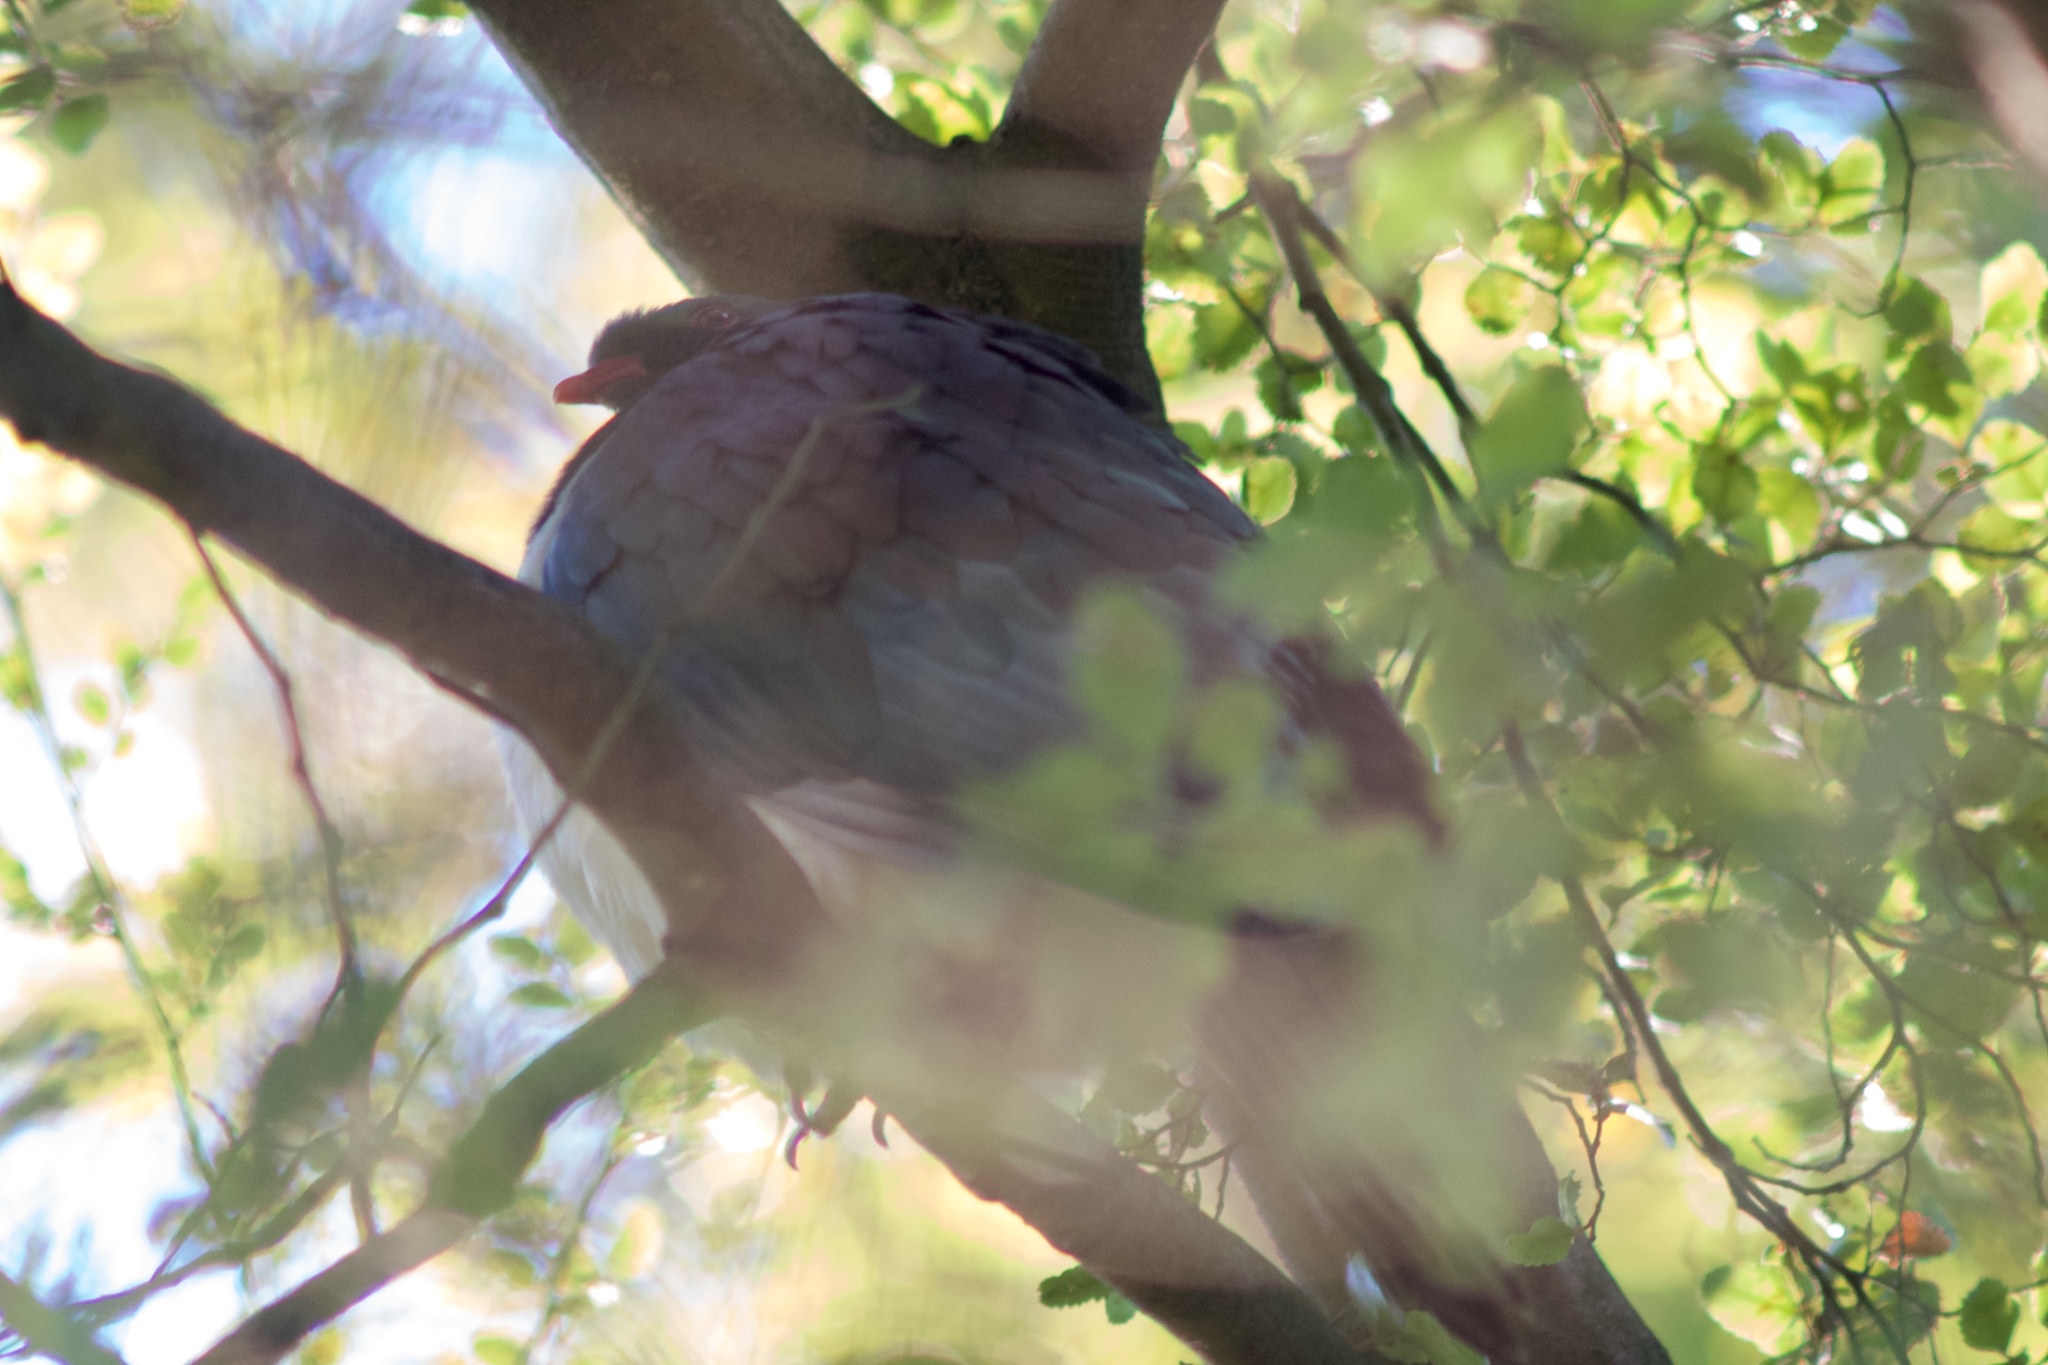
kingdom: Animalia
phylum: Chordata
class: Aves
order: Columbiformes
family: Columbidae
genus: Hemiphaga
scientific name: Hemiphaga novaeseelandiae
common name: New zealand pigeon
